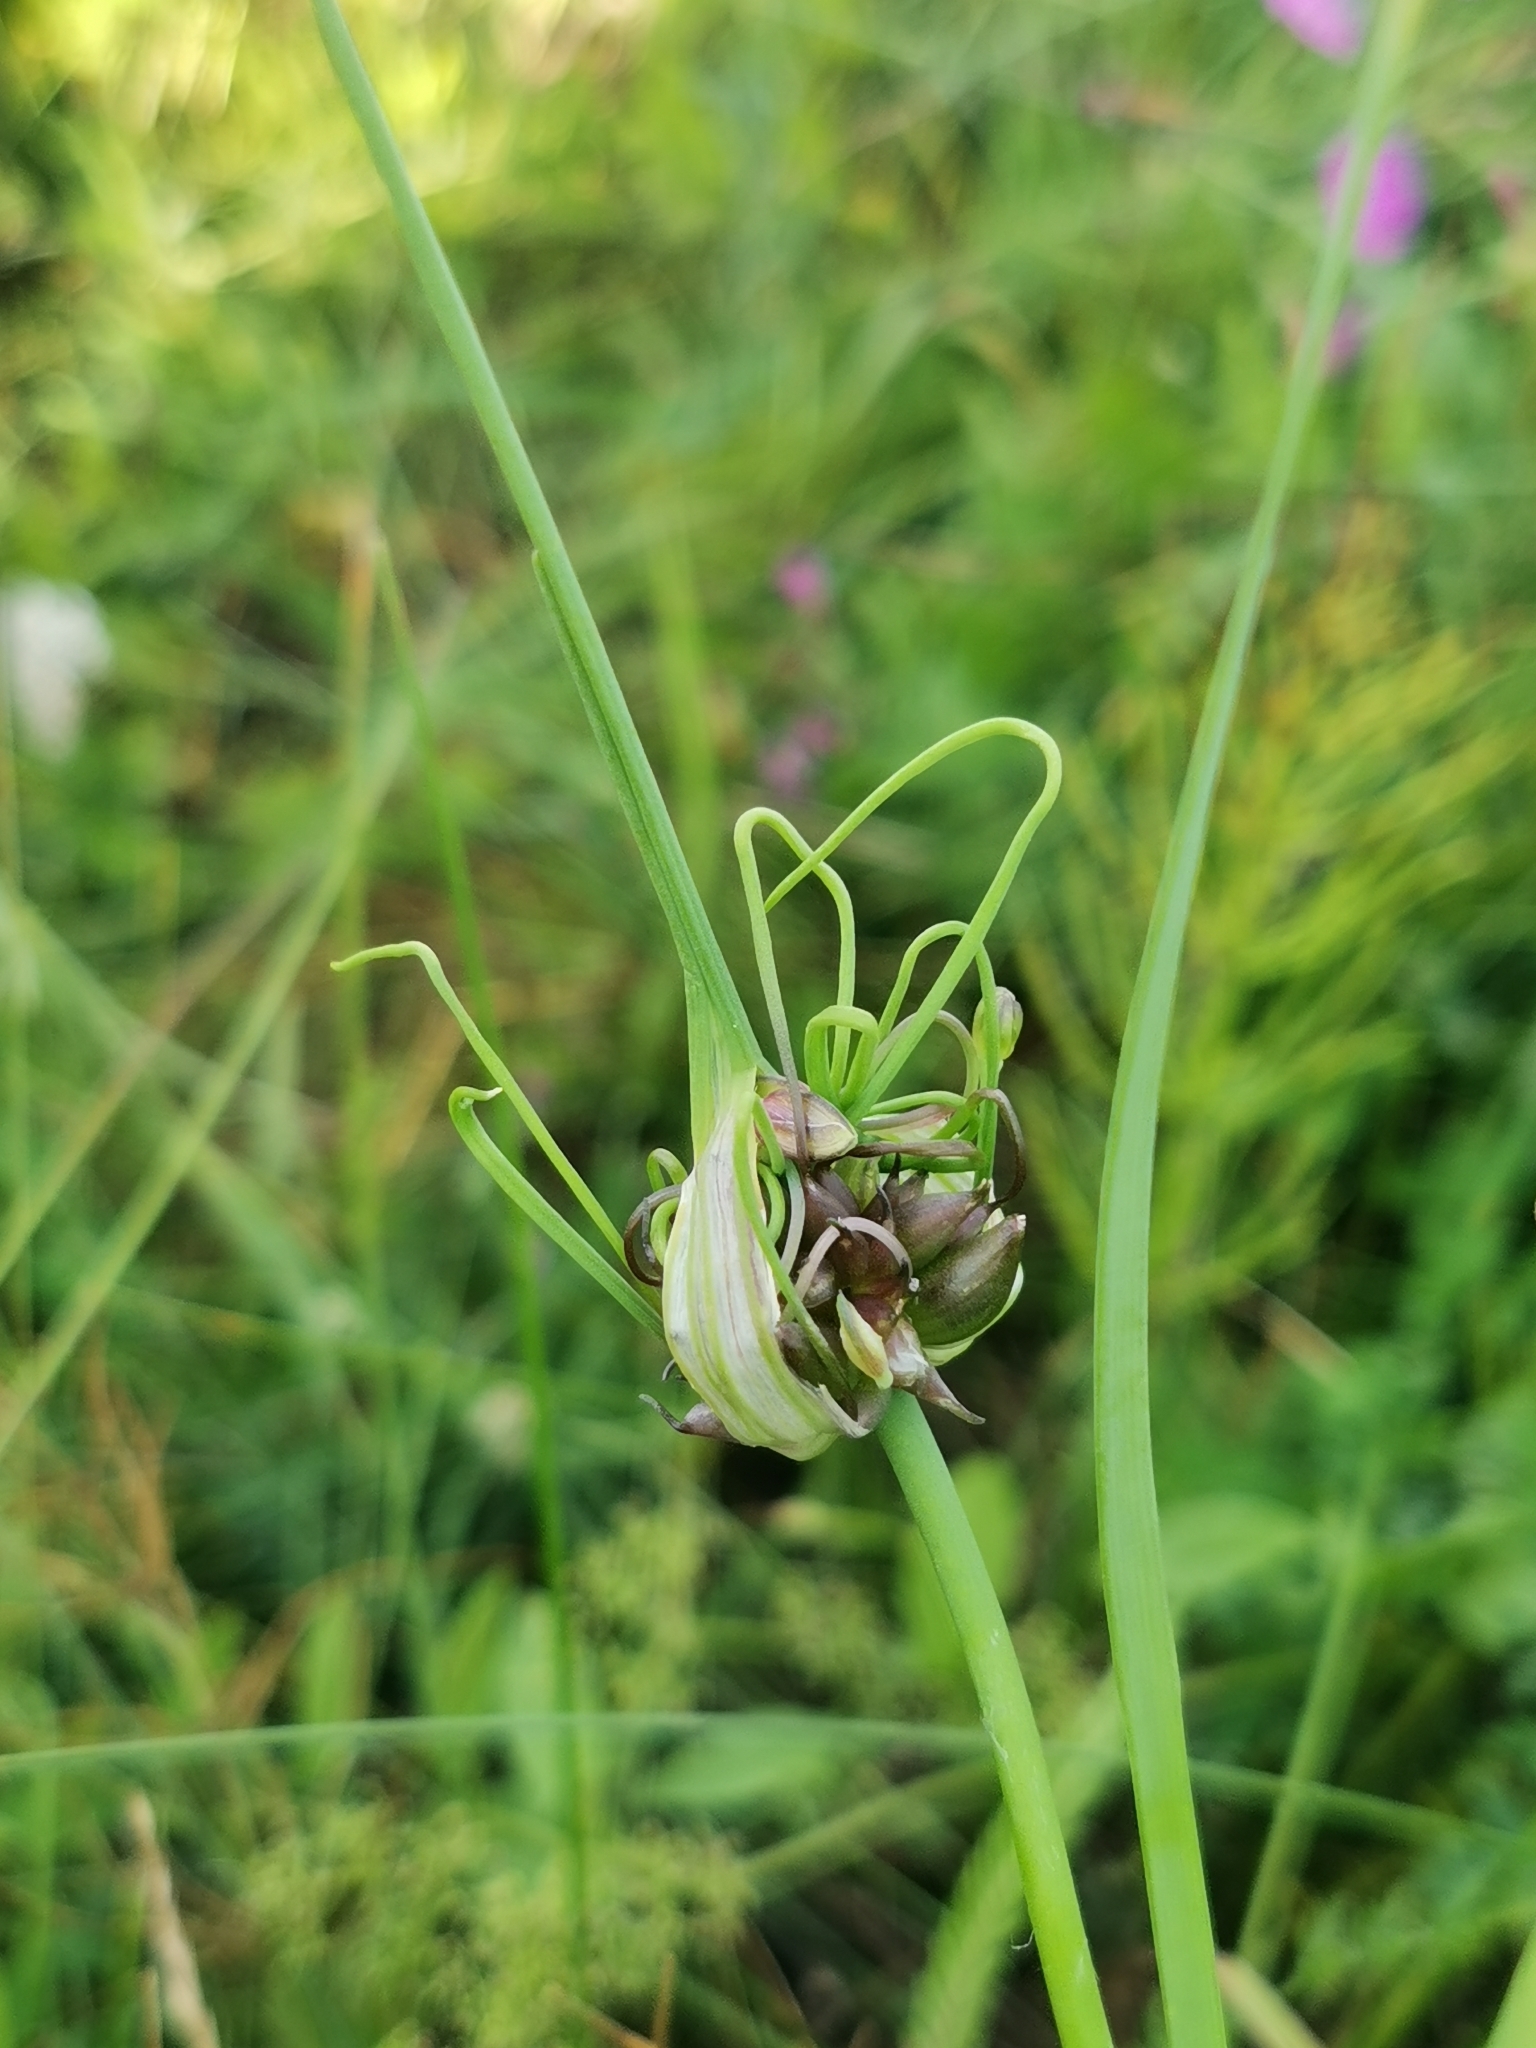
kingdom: Plantae
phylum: Tracheophyta
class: Liliopsida
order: Asparagales
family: Amaryllidaceae
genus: Allium
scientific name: Allium oleraceum
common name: Field garlic
